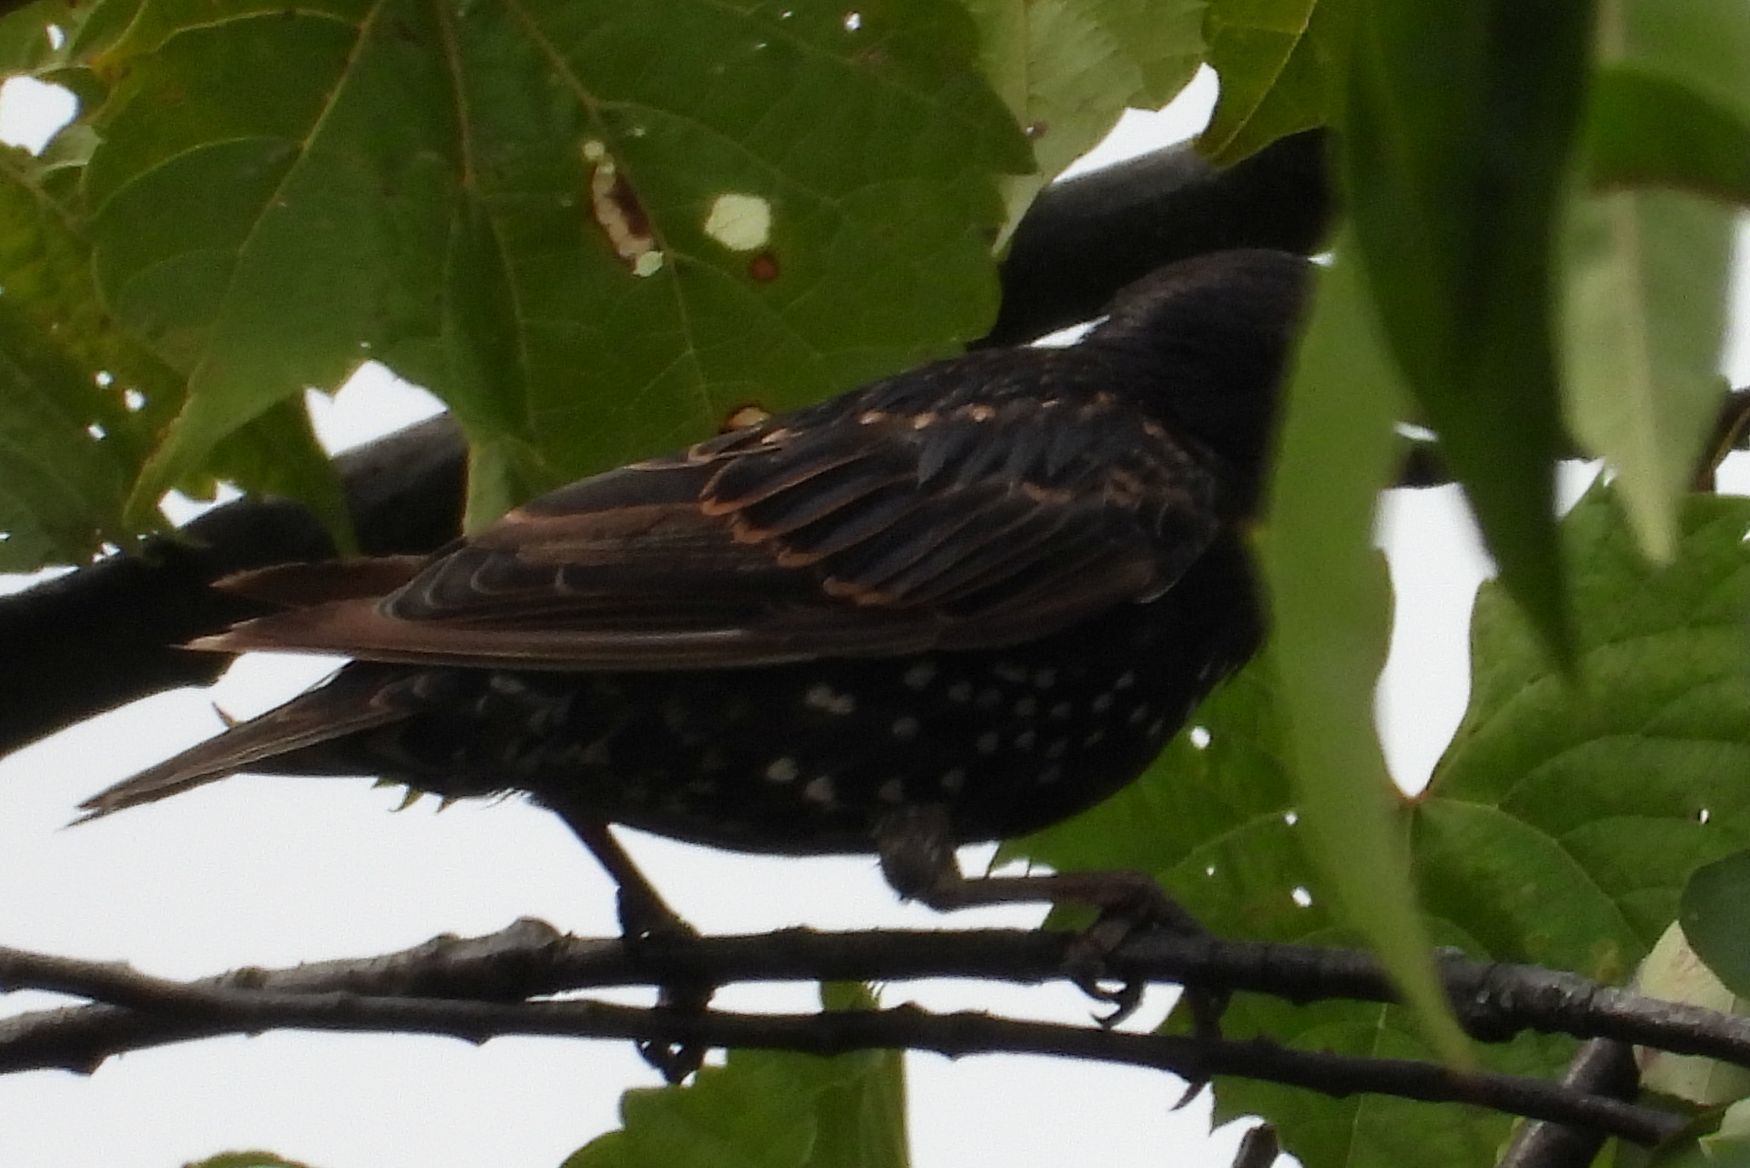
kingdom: Animalia
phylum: Chordata
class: Aves
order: Passeriformes
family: Sturnidae
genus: Sturnus
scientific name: Sturnus vulgaris
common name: Common starling
